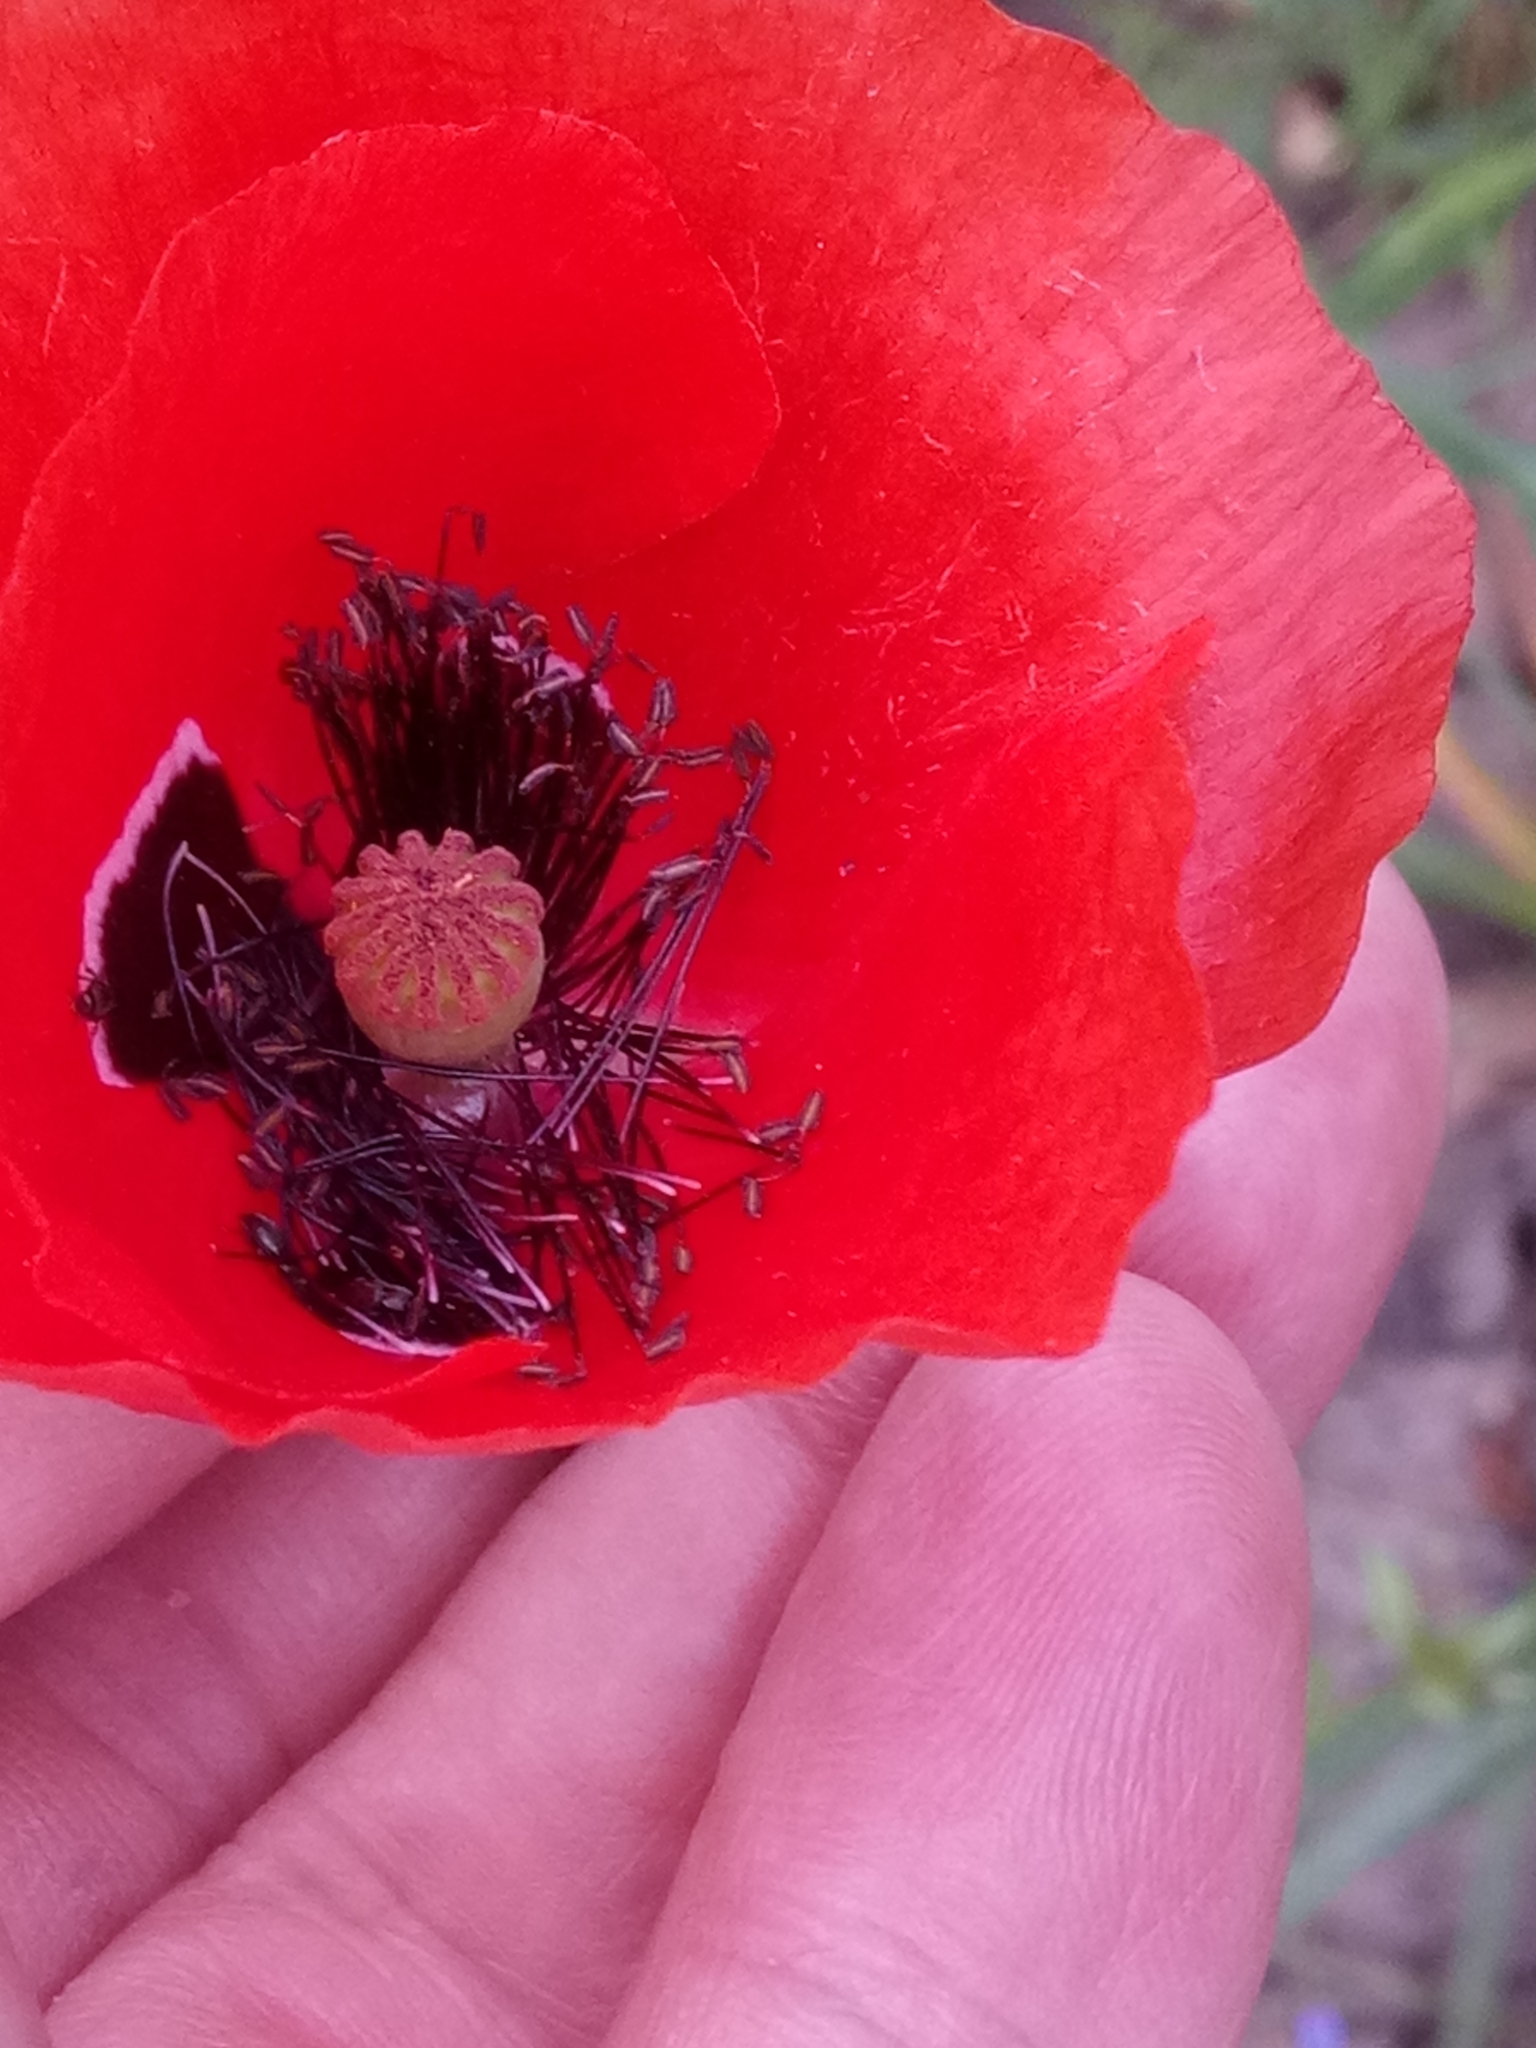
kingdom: Plantae
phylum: Tracheophyta
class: Magnoliopsida
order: Ranunculales
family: Papaveraceae
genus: Papaver
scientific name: Papaver rhoeas
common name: Corn poppy
